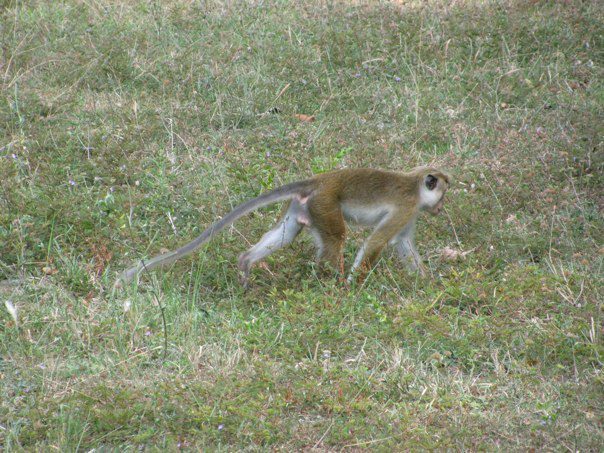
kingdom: Animalia
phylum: Chordata
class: Mammalia
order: Primates
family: Cercopithecidae
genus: Macaca
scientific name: Macaca sinica
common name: Toque macaque
